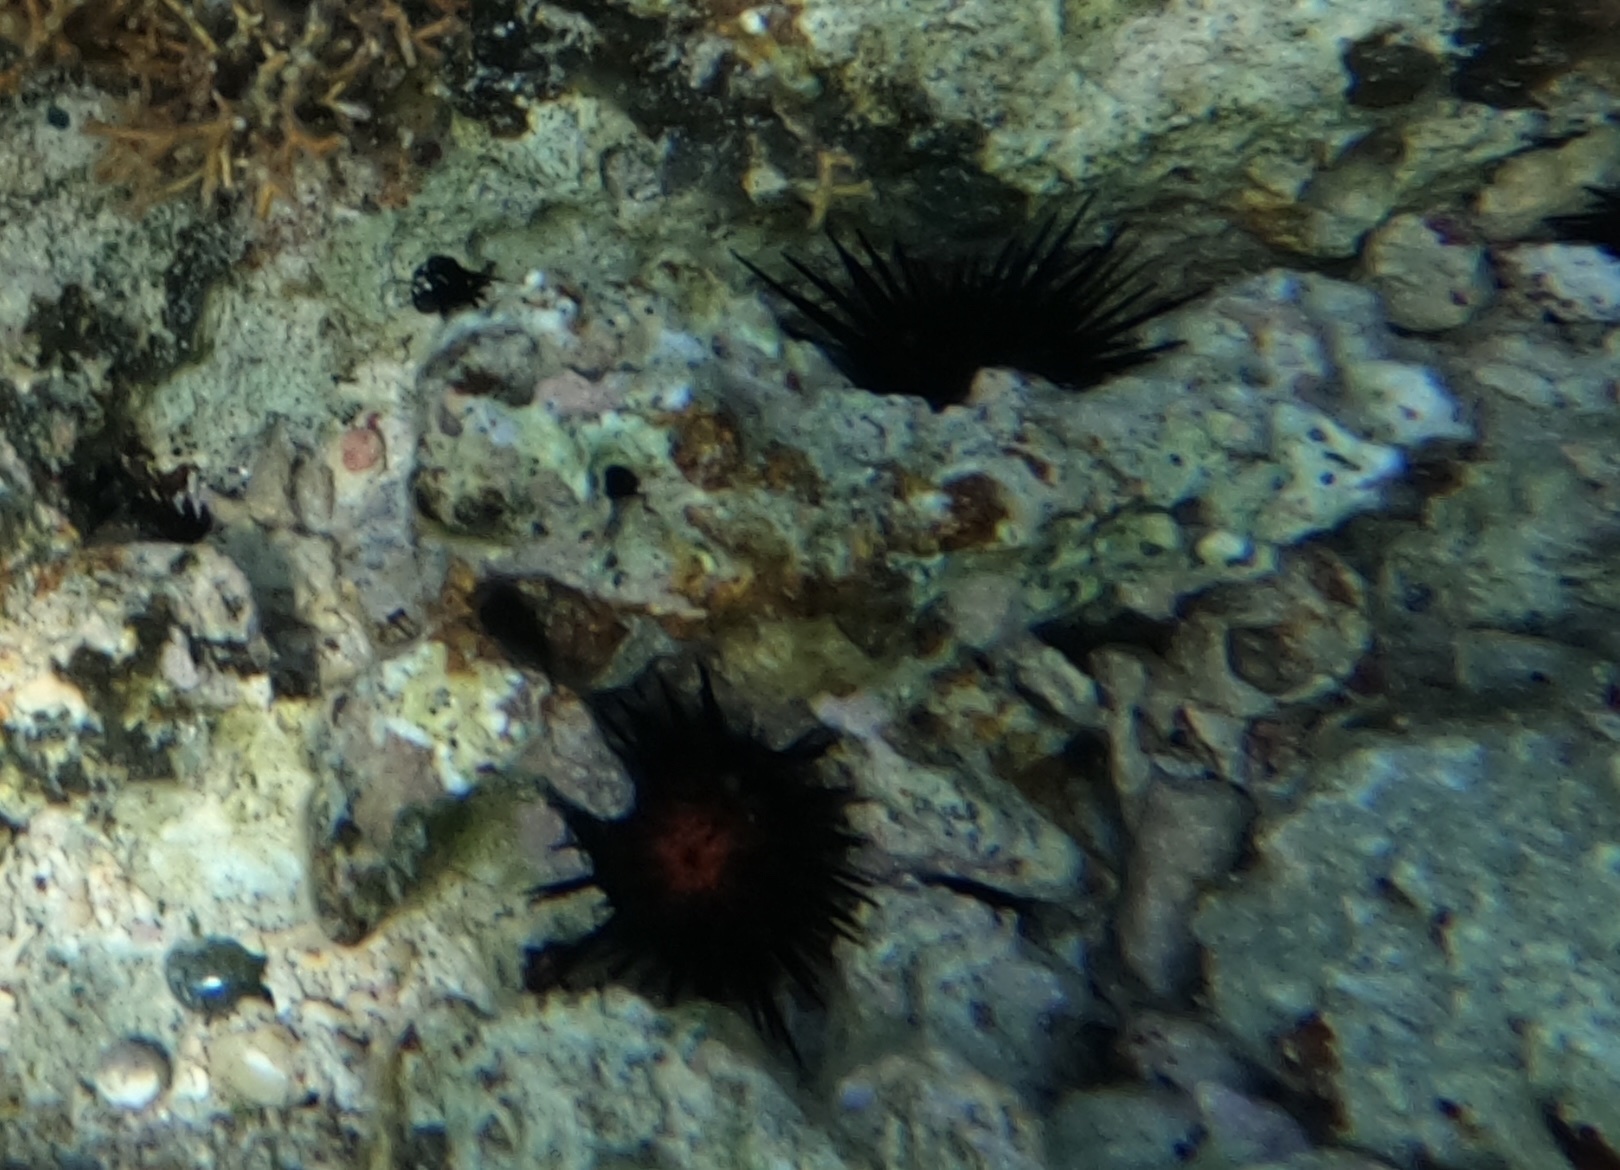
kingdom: Animalia
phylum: Echinodermata
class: Echinoidea
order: Camarodonta
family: Echinometridae
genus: Echinometra
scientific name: Echinometra lucunter
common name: Rock urchin
